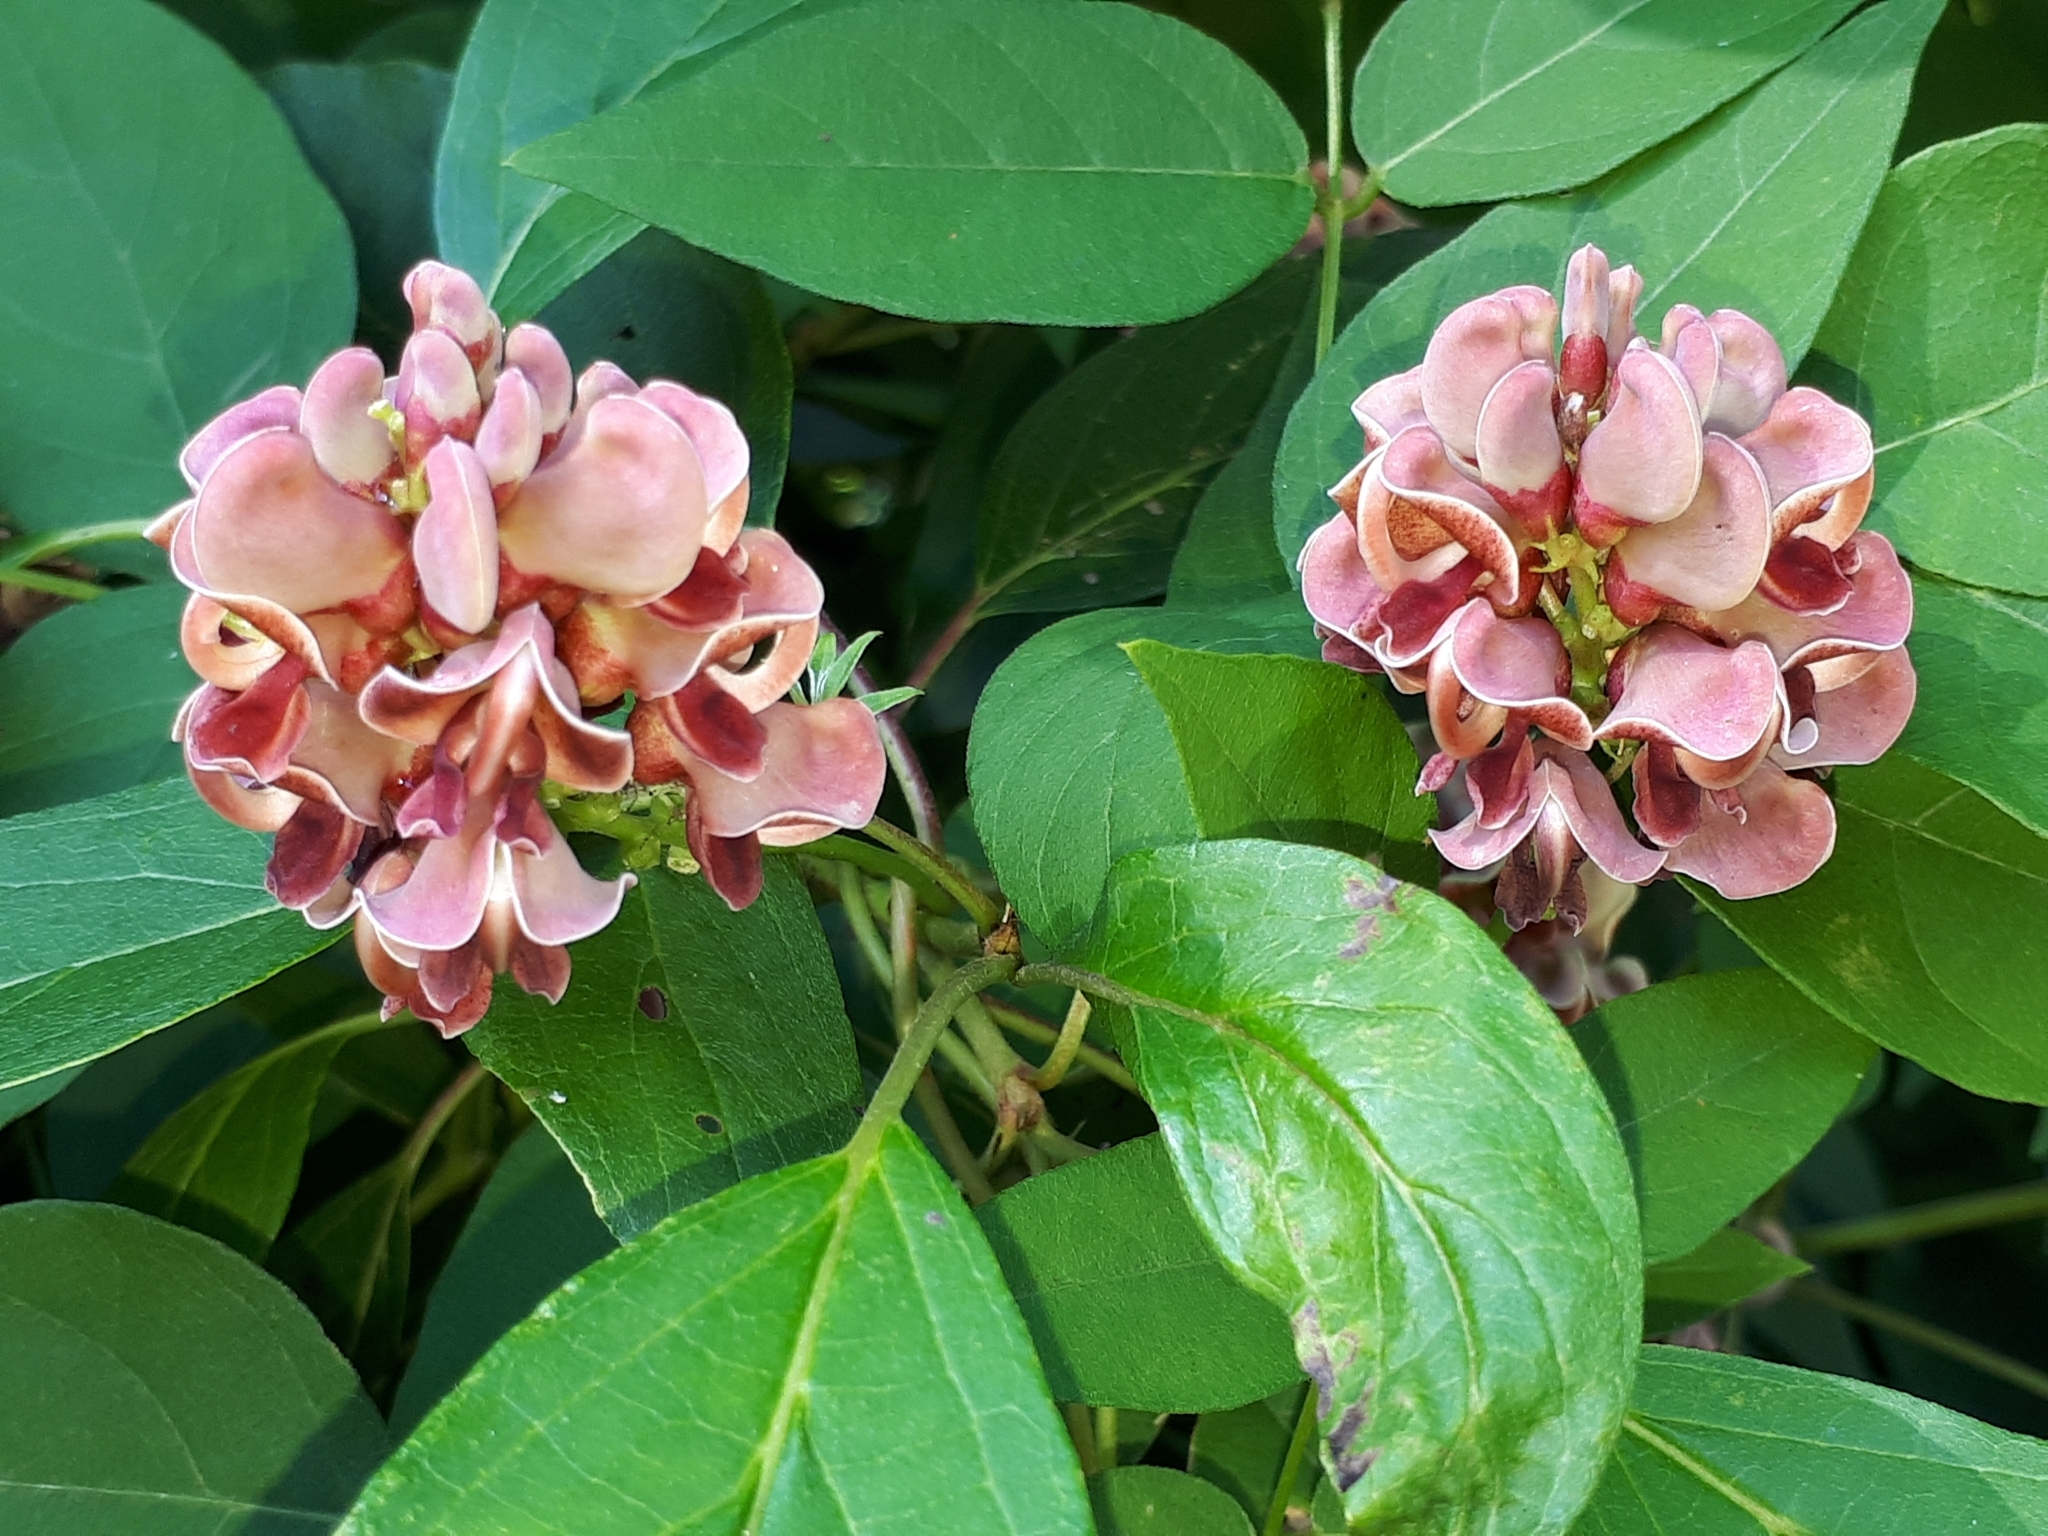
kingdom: Plantae
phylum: Tracheophyta
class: Magnoliopsida
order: Fabales
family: Fabaceae
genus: Apios
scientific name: Apios americana
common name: American potato-bean
